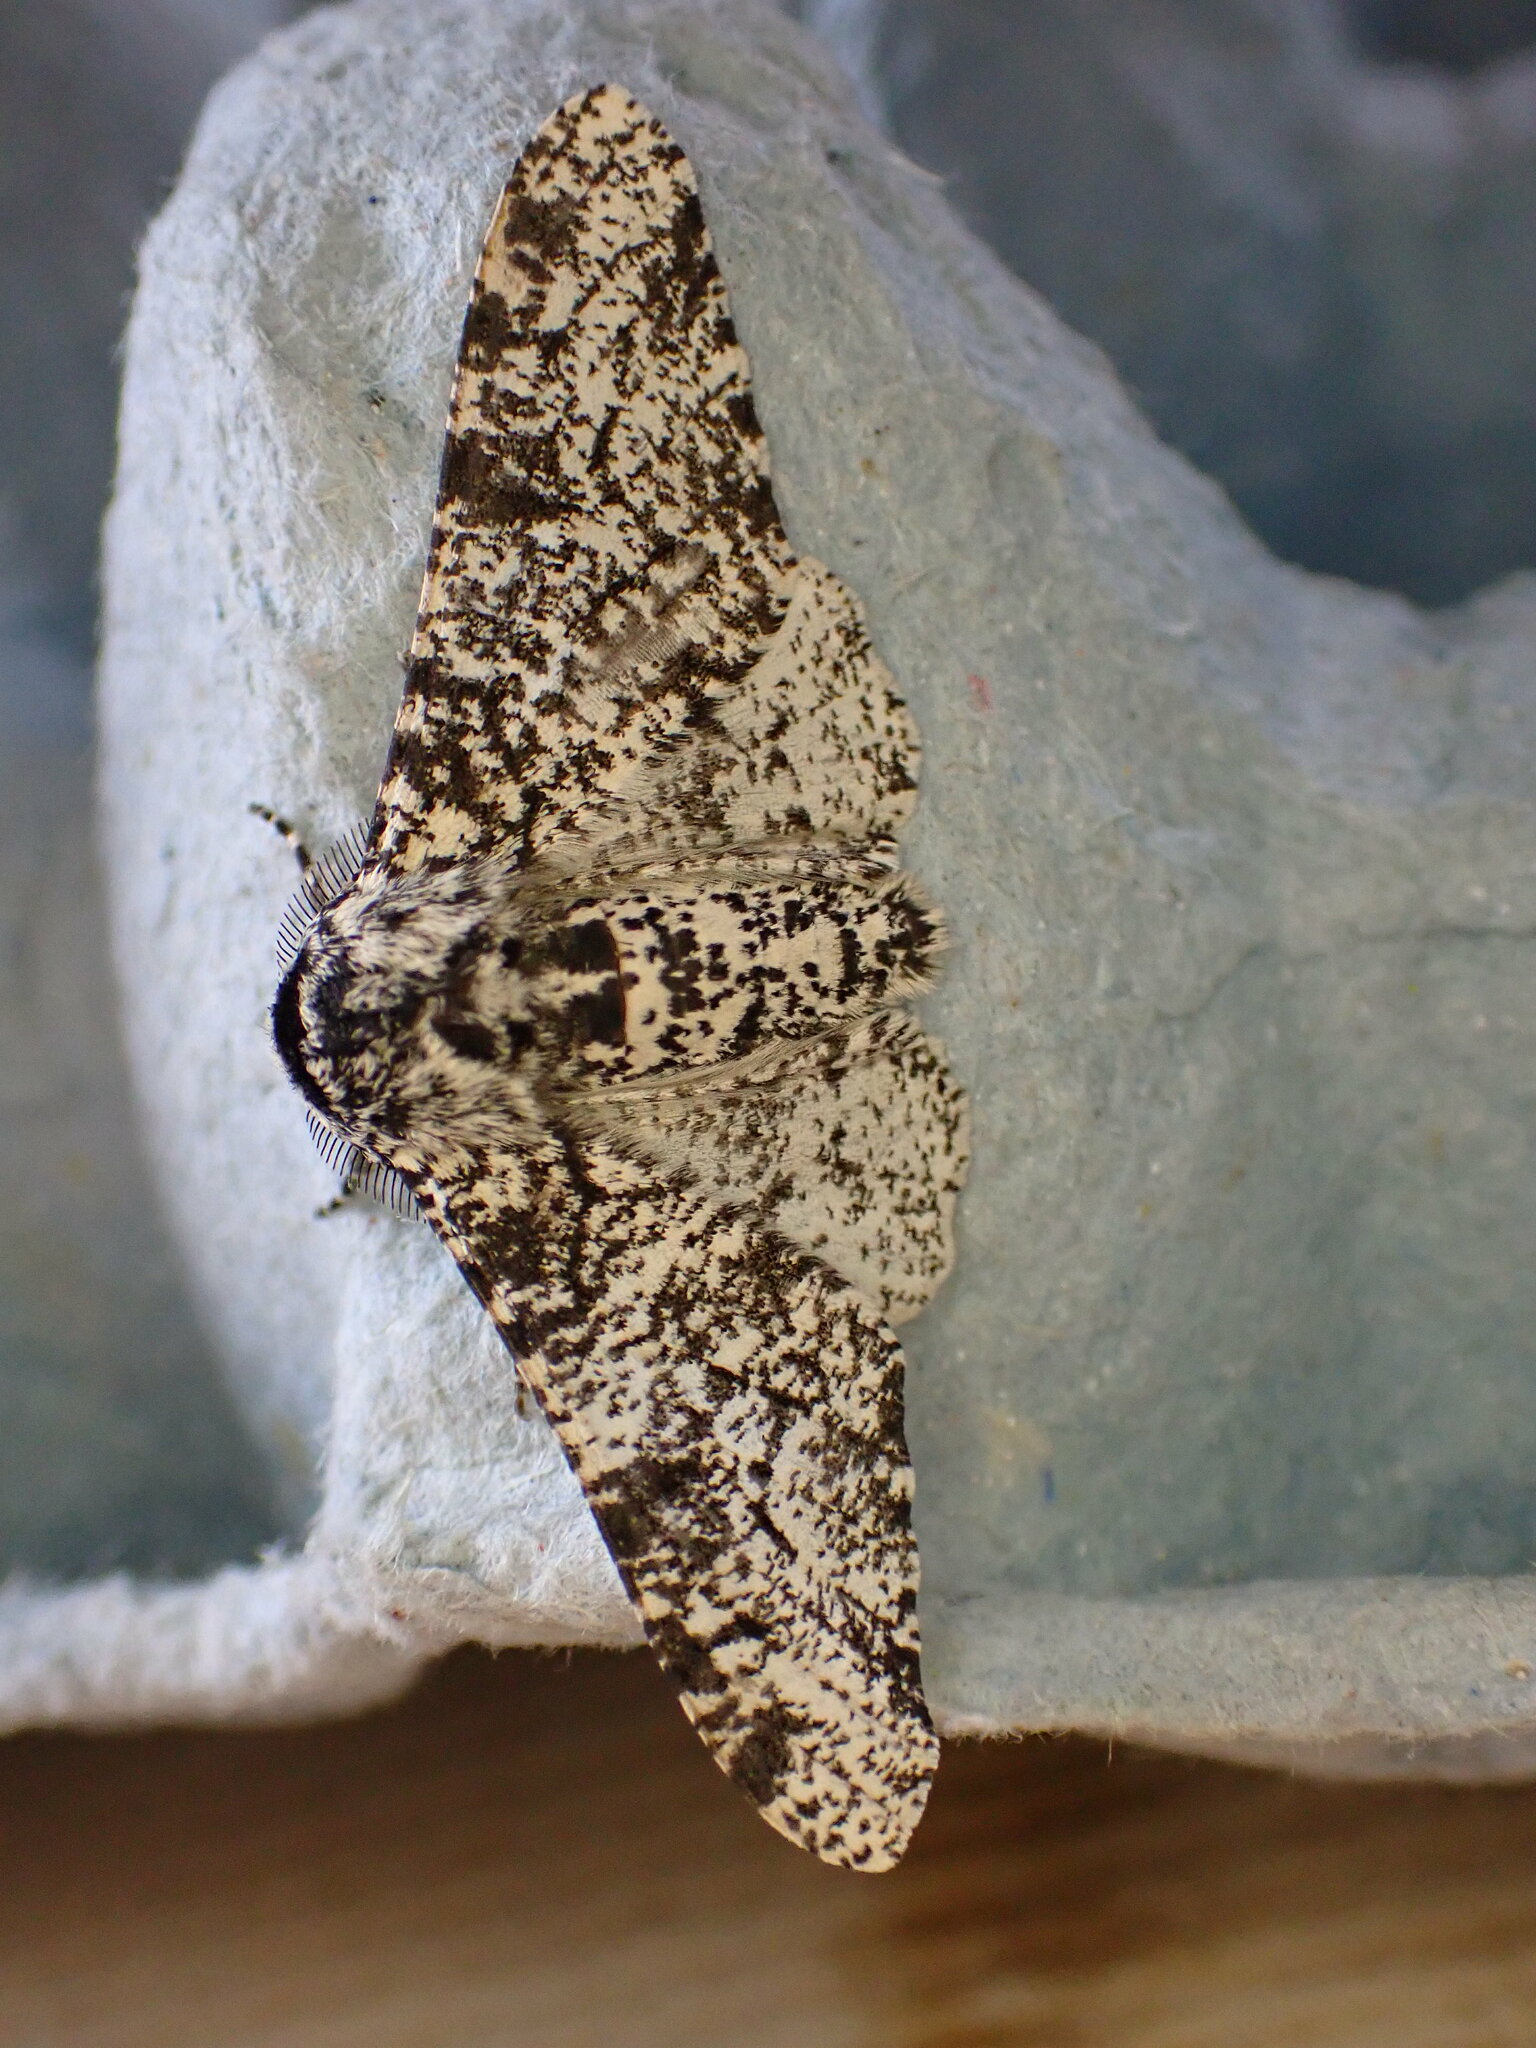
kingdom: Animalia
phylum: Arthropoda
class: Insecta
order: Lepidoptera
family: Geometridae
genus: Biston
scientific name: Biston betularia
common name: Peppered moth
